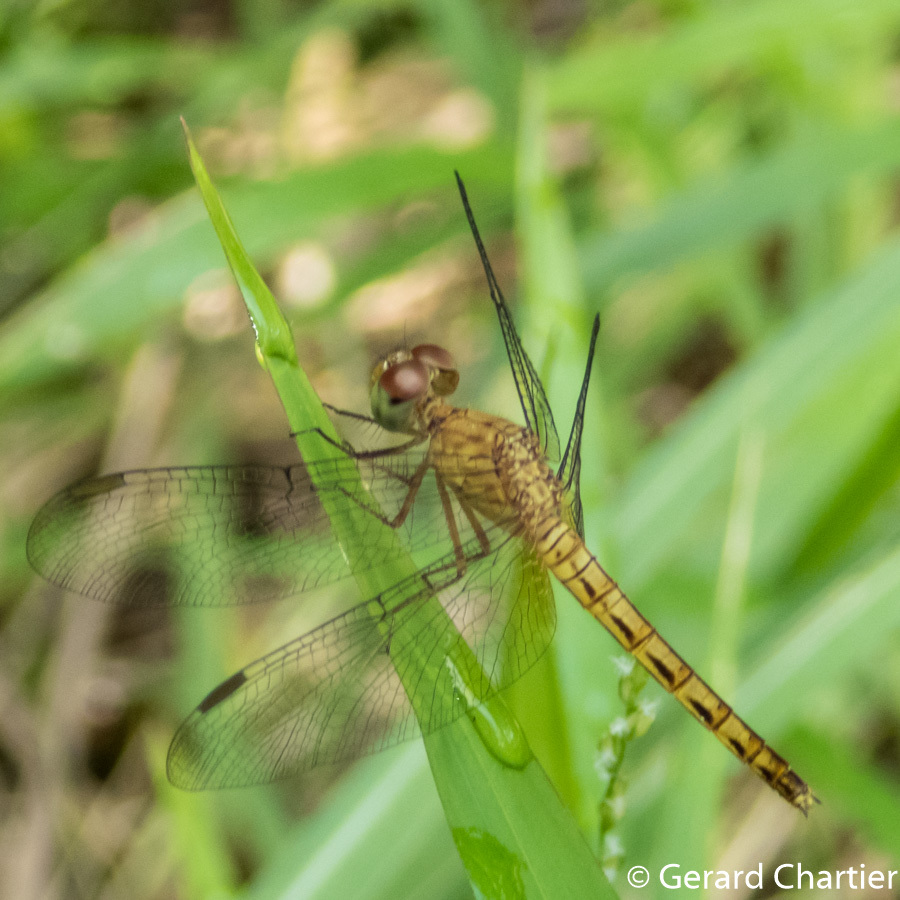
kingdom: Animalia
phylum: Arthropoda
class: Insecta
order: Odonata
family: Libellulidae
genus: Neurothemis
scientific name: Neurothemis fluctuans
